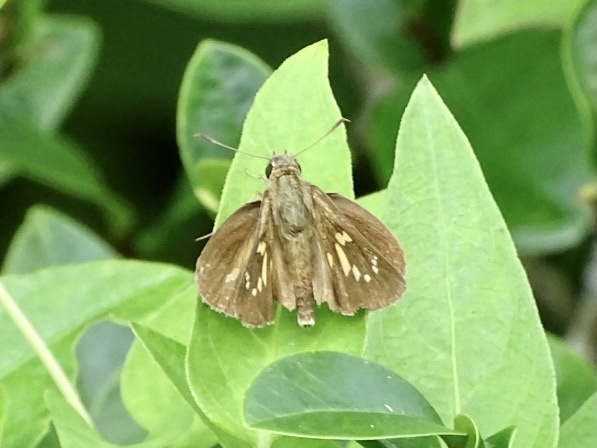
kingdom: Animalia
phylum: Arthropoda
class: Insecta
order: Lepidoptera
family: Hesperiidae
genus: Polytremis
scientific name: Polytremis lubricans
